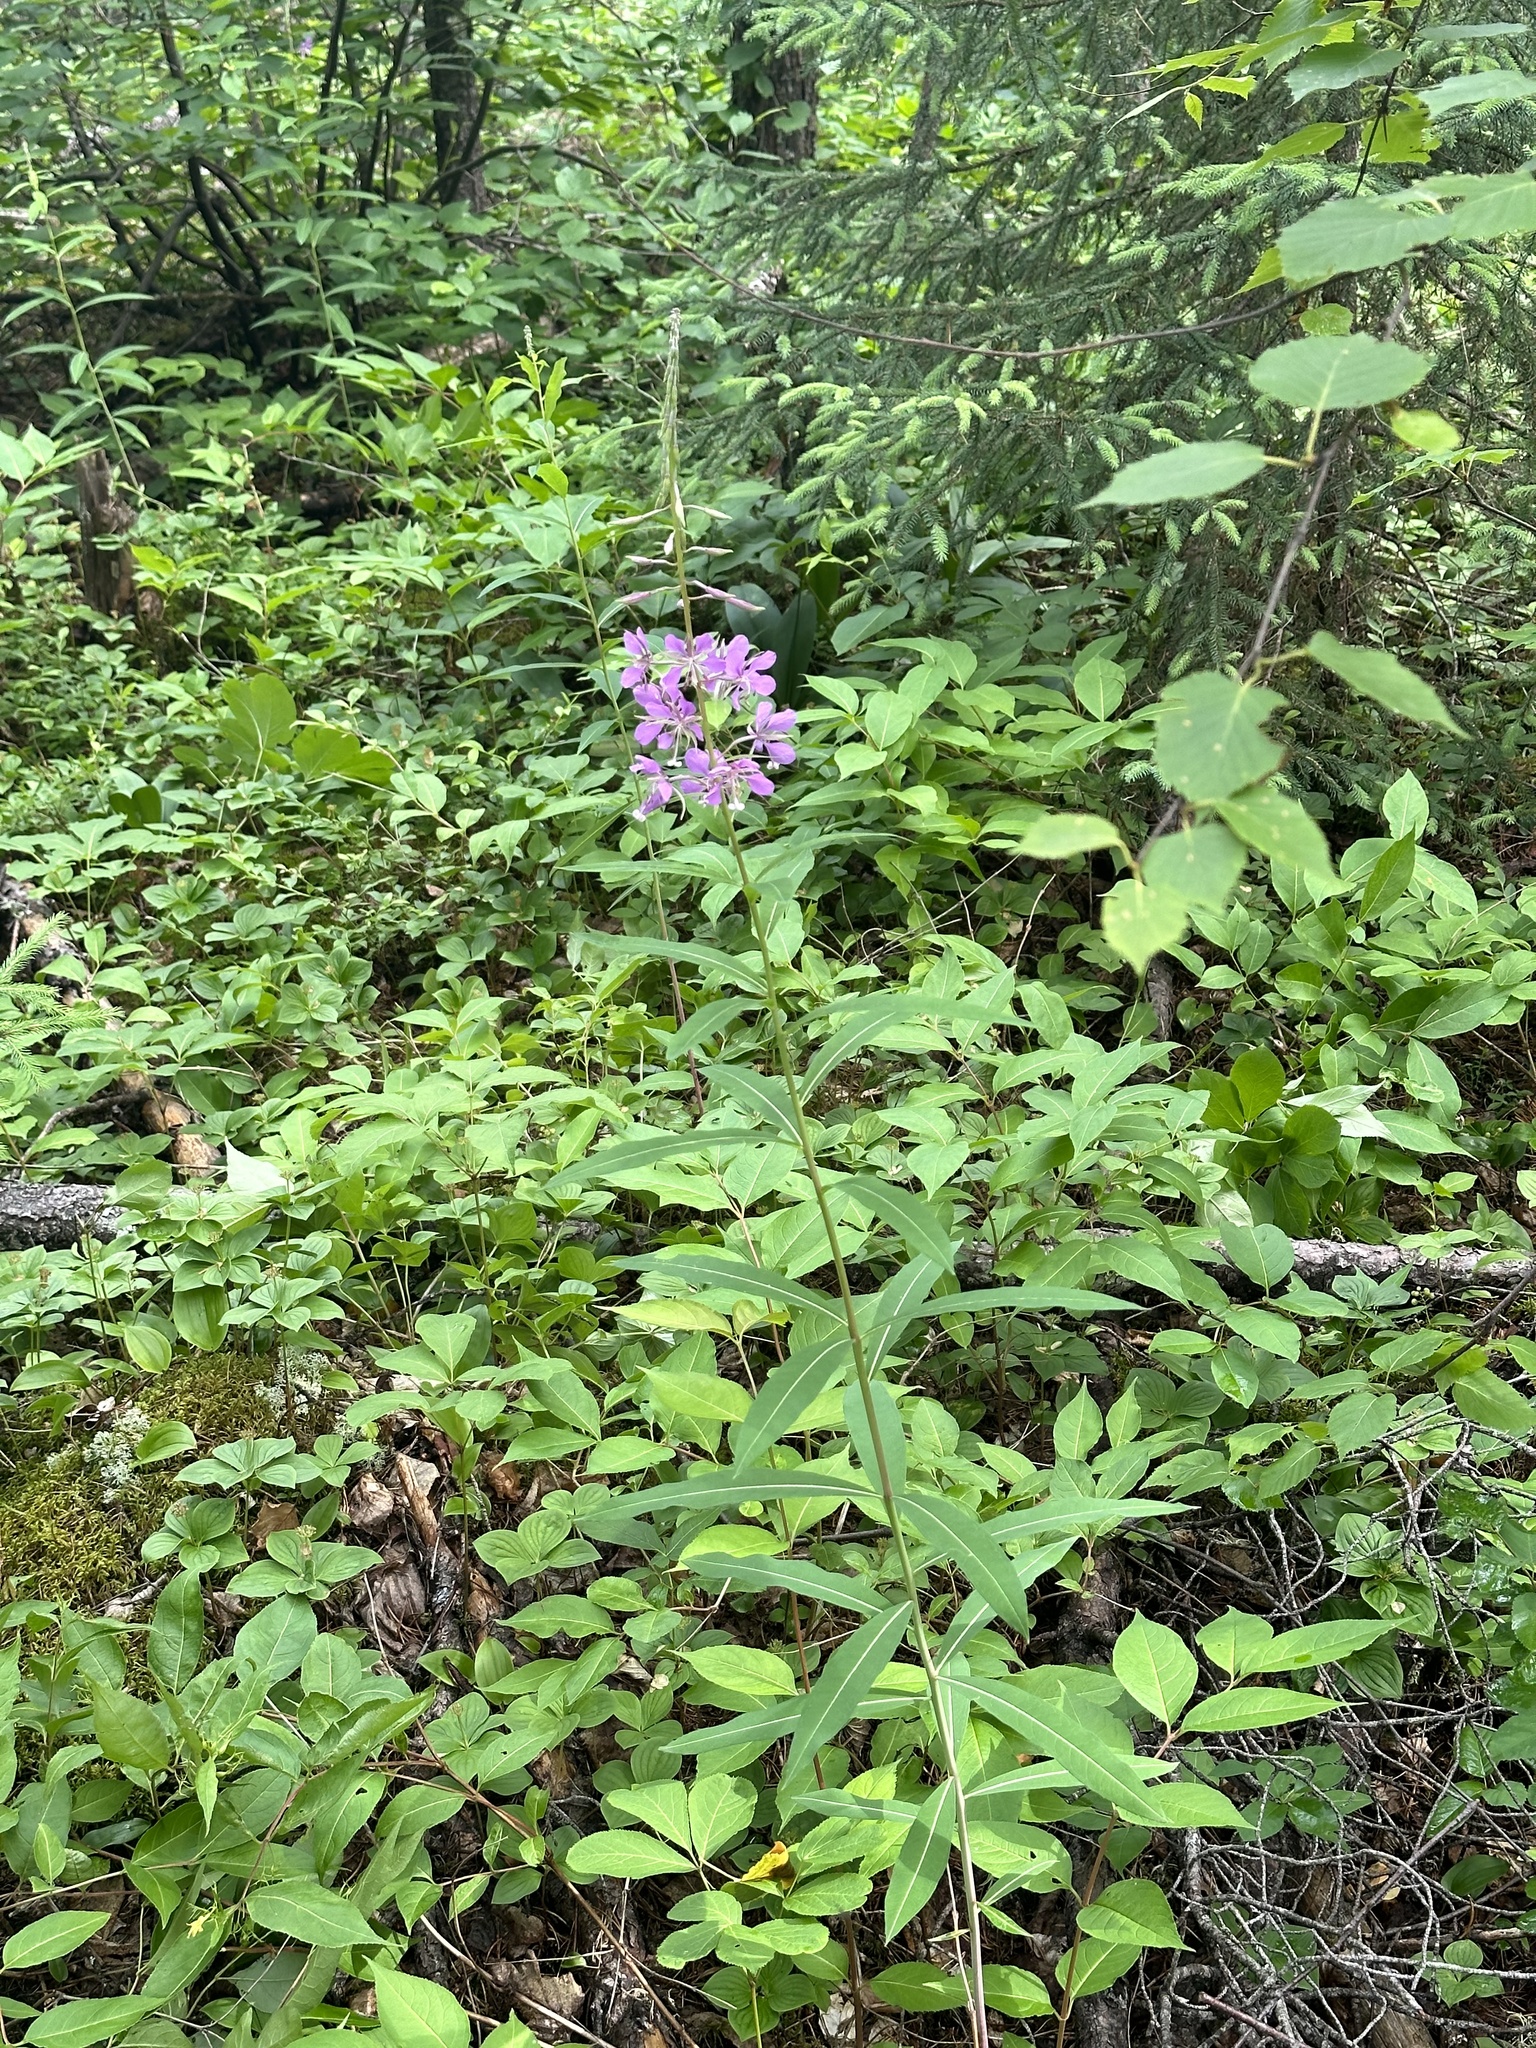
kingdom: Plantae
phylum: Tracheophyta
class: Magnoliopsida
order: Myrtales
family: Onagraceae
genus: Chamaenerion
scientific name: Chamaenerion angustifolium
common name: Fireweed
